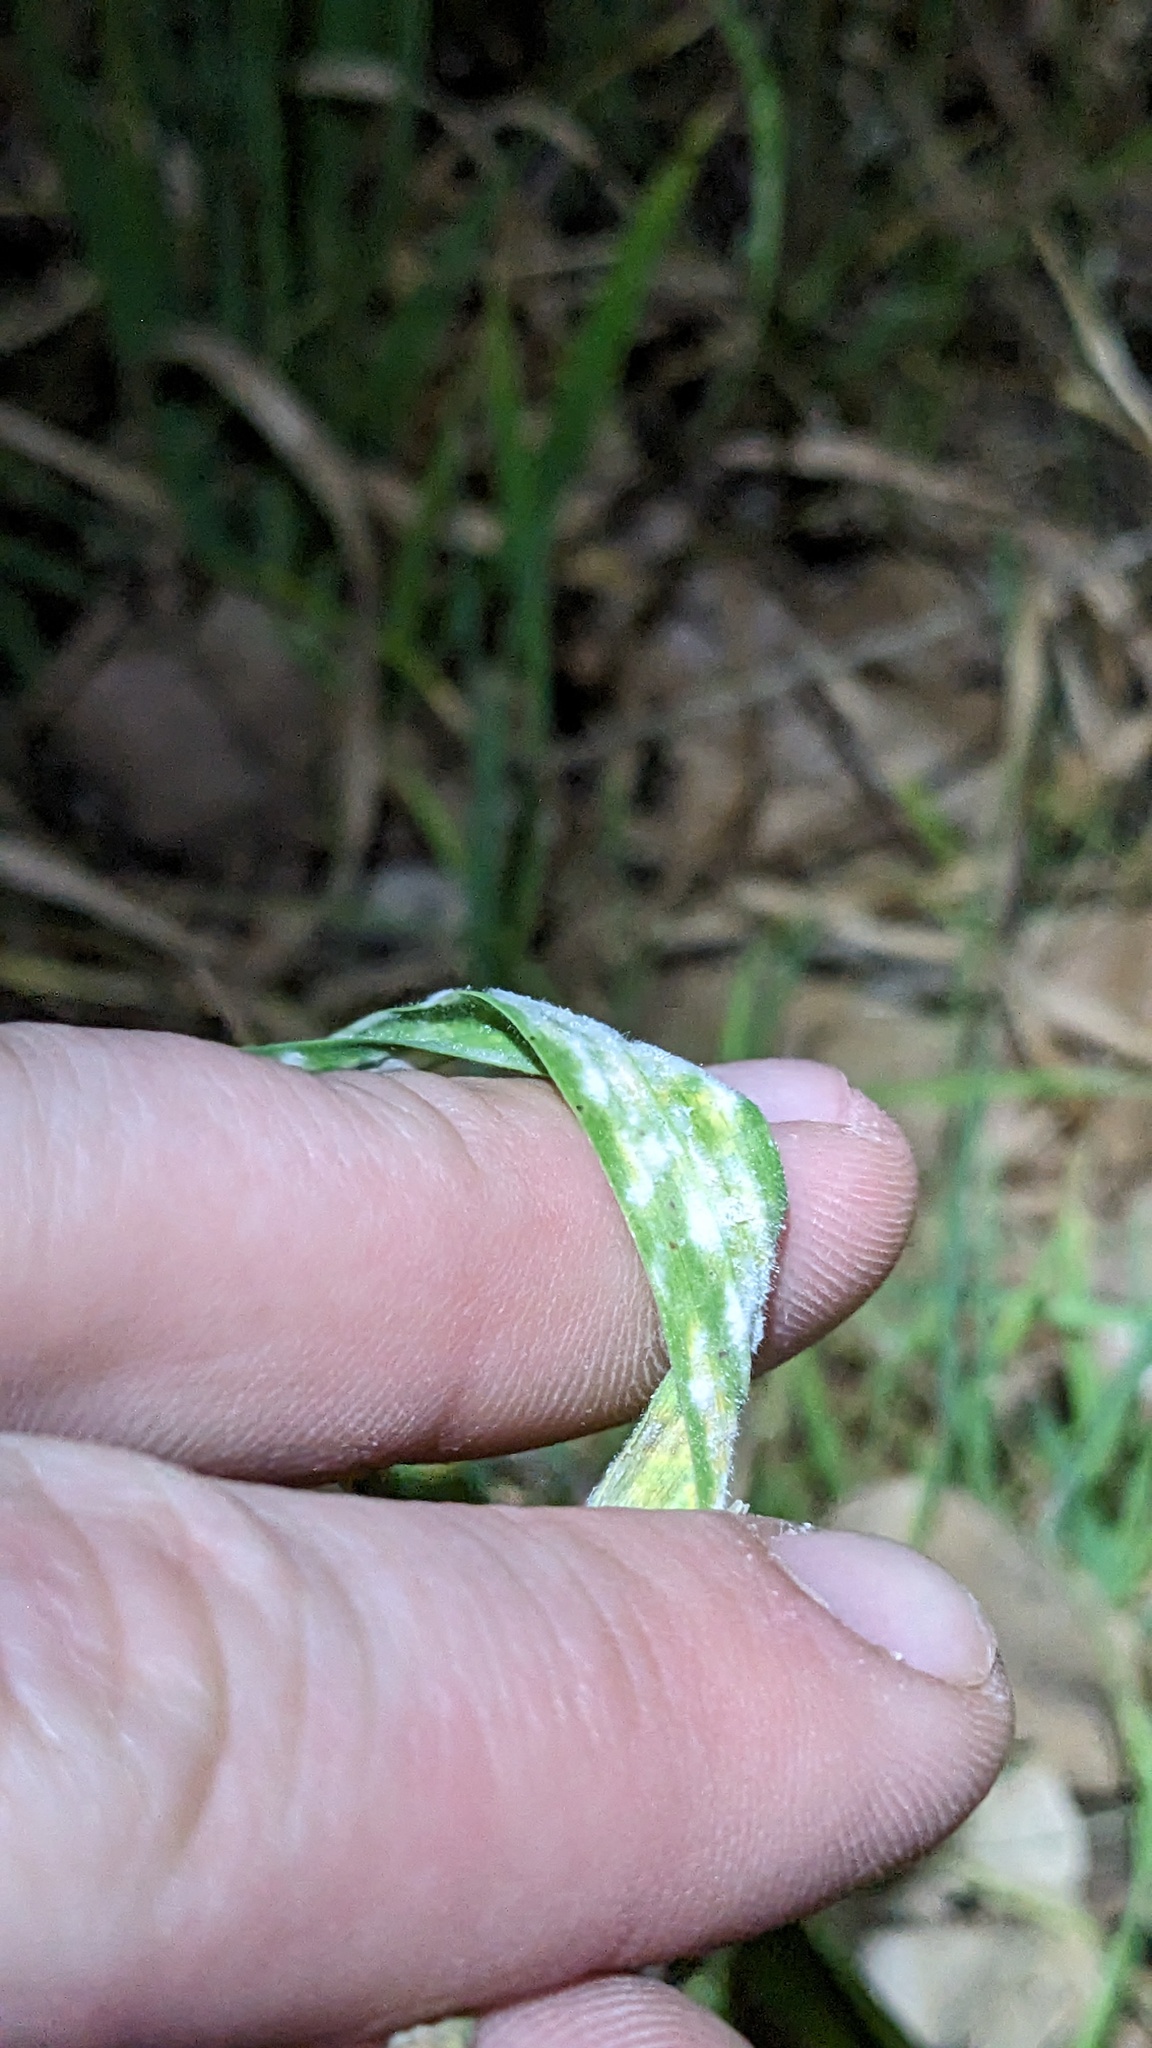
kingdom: Fungi
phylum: Ascomycota
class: Leotiomycetes
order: Helotiales
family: Erysiphaceae
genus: Blumeria
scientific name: Blumeria bromi-cathartici
